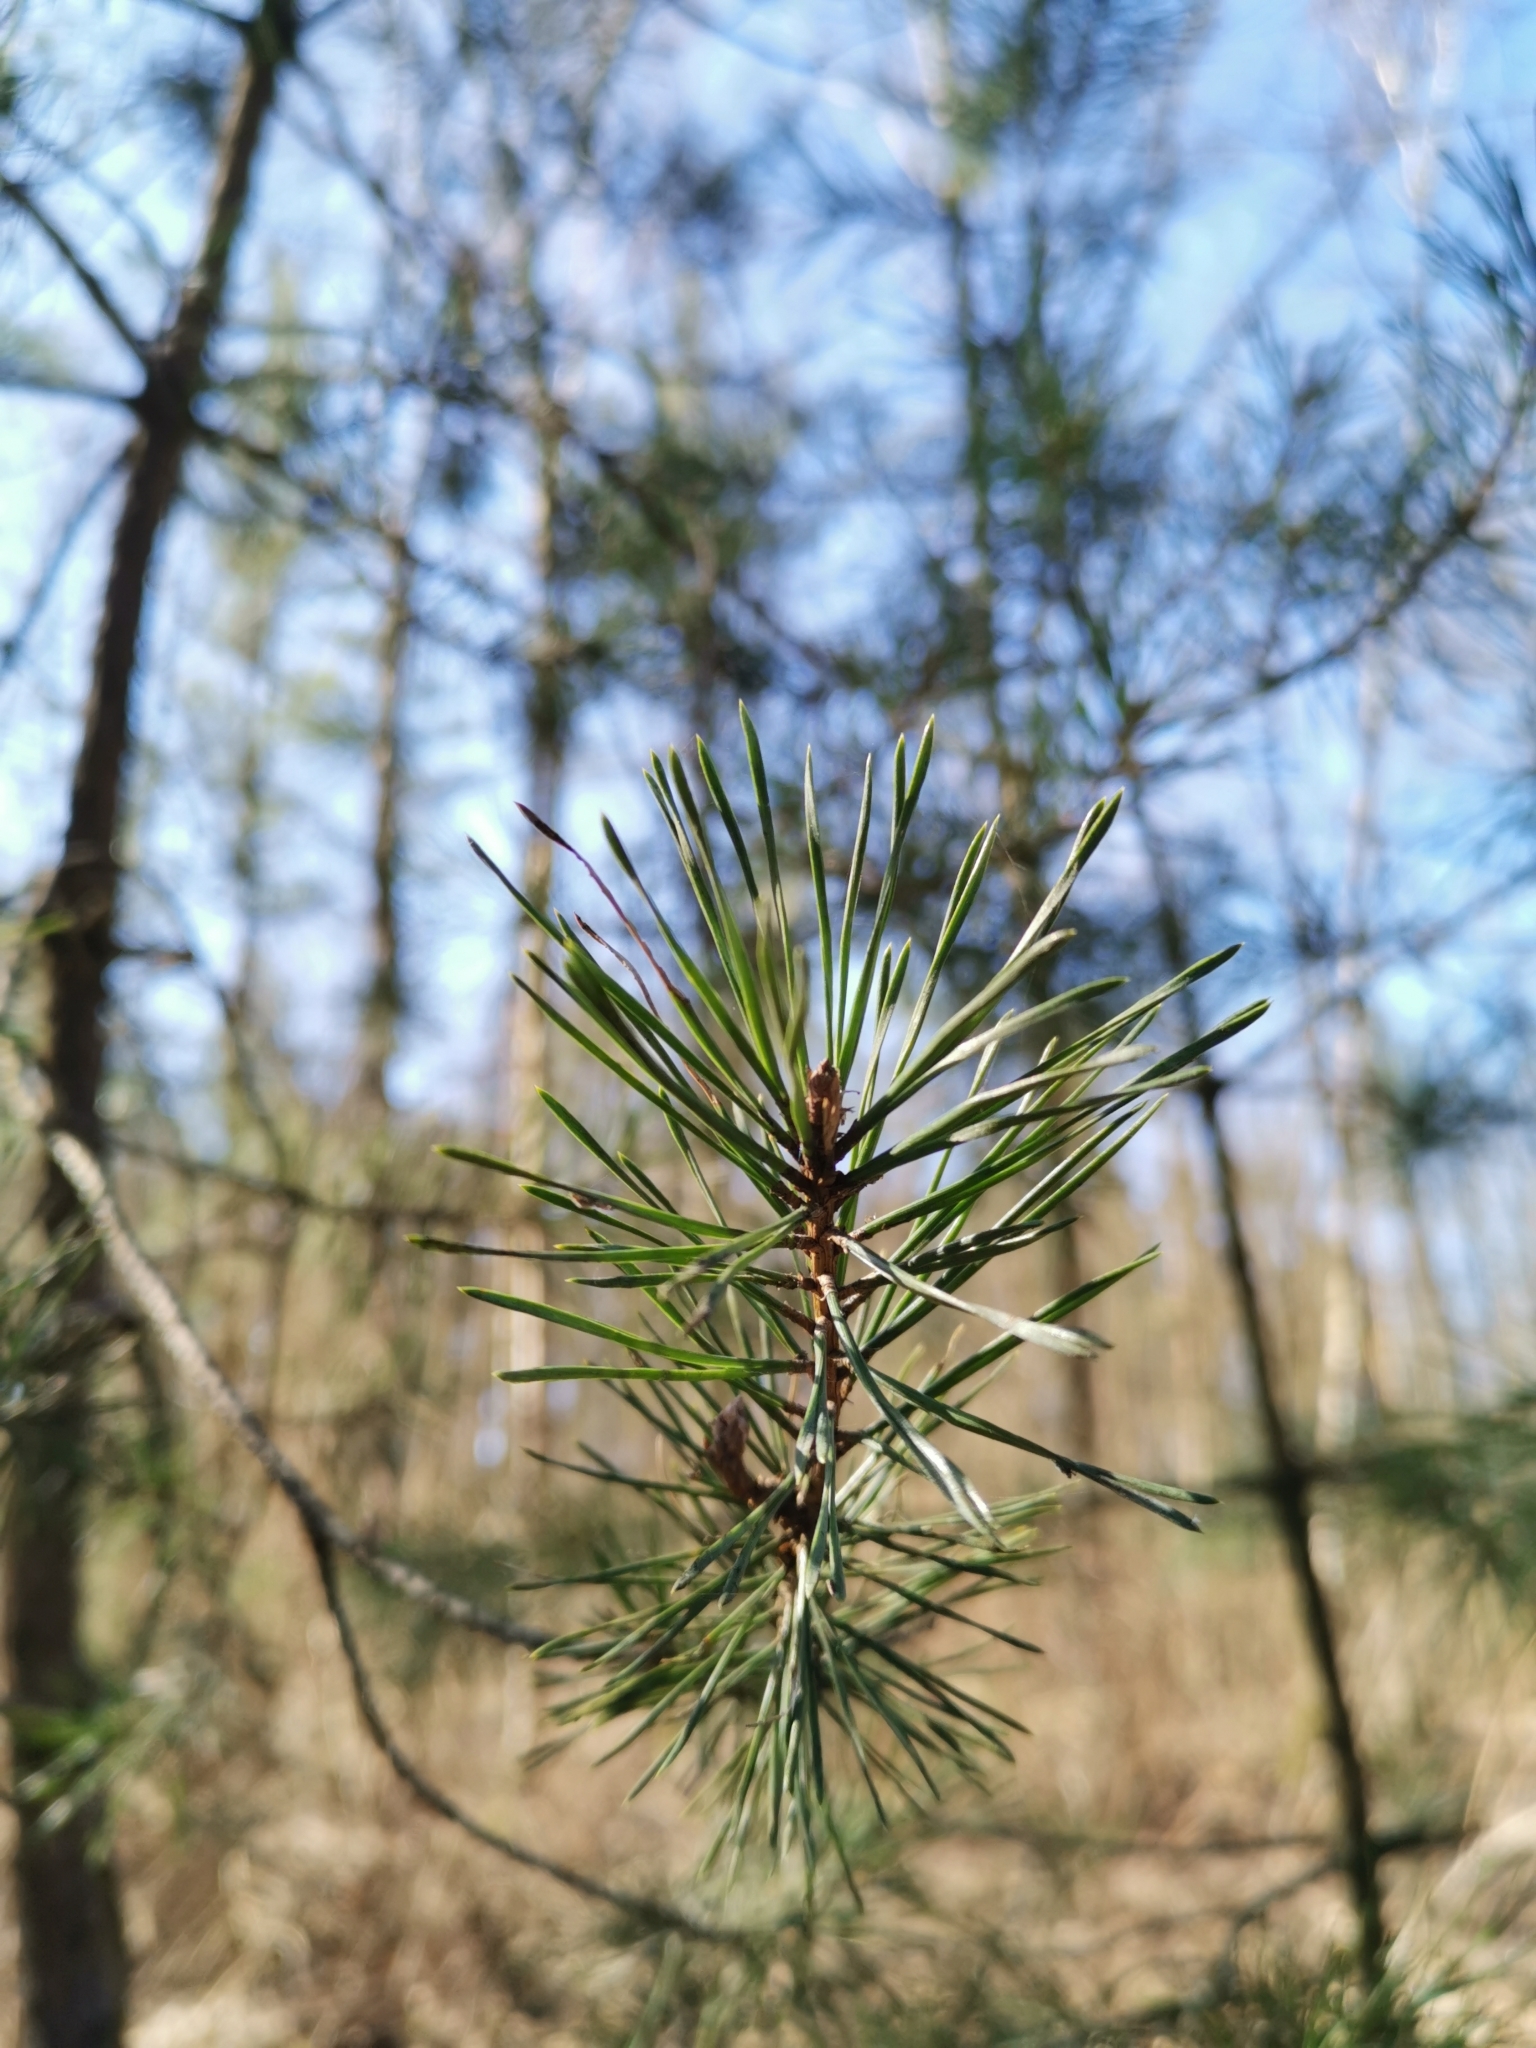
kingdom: Plantae
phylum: Tracheophyta
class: Pinopsida
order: Pinales
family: Pinaceae
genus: Pinus
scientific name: Pinus sylvestris
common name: Scots pine
